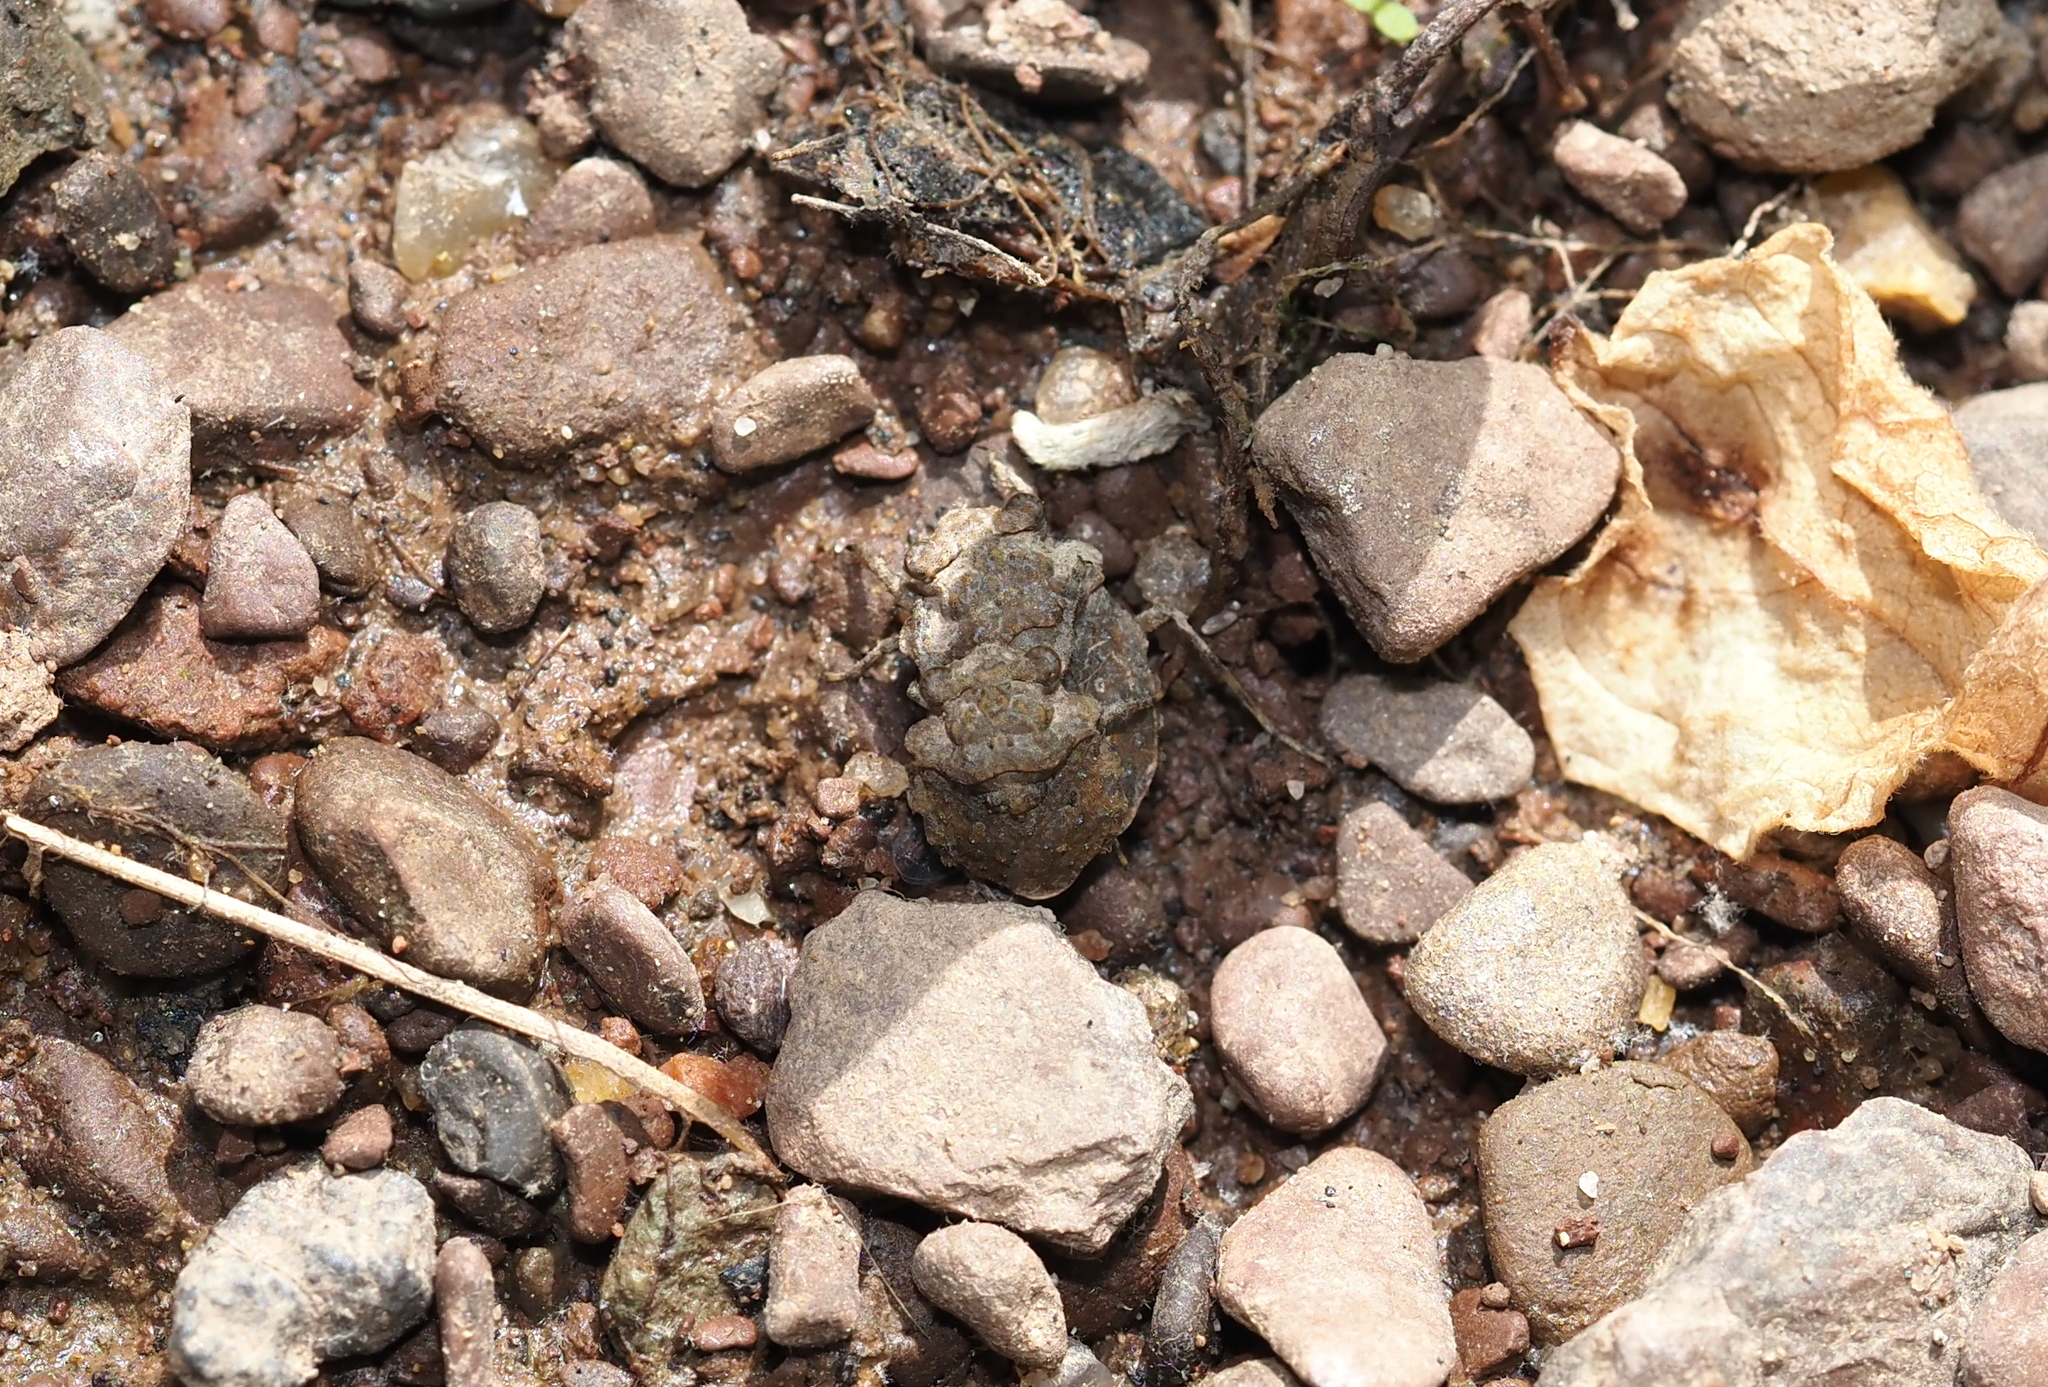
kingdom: Animalia
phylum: Arthropoda
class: Insecta
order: Hemiptera
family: Gelastocoridae
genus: Gelastocoris
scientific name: Gelastocoris oculatus
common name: Toad bug
